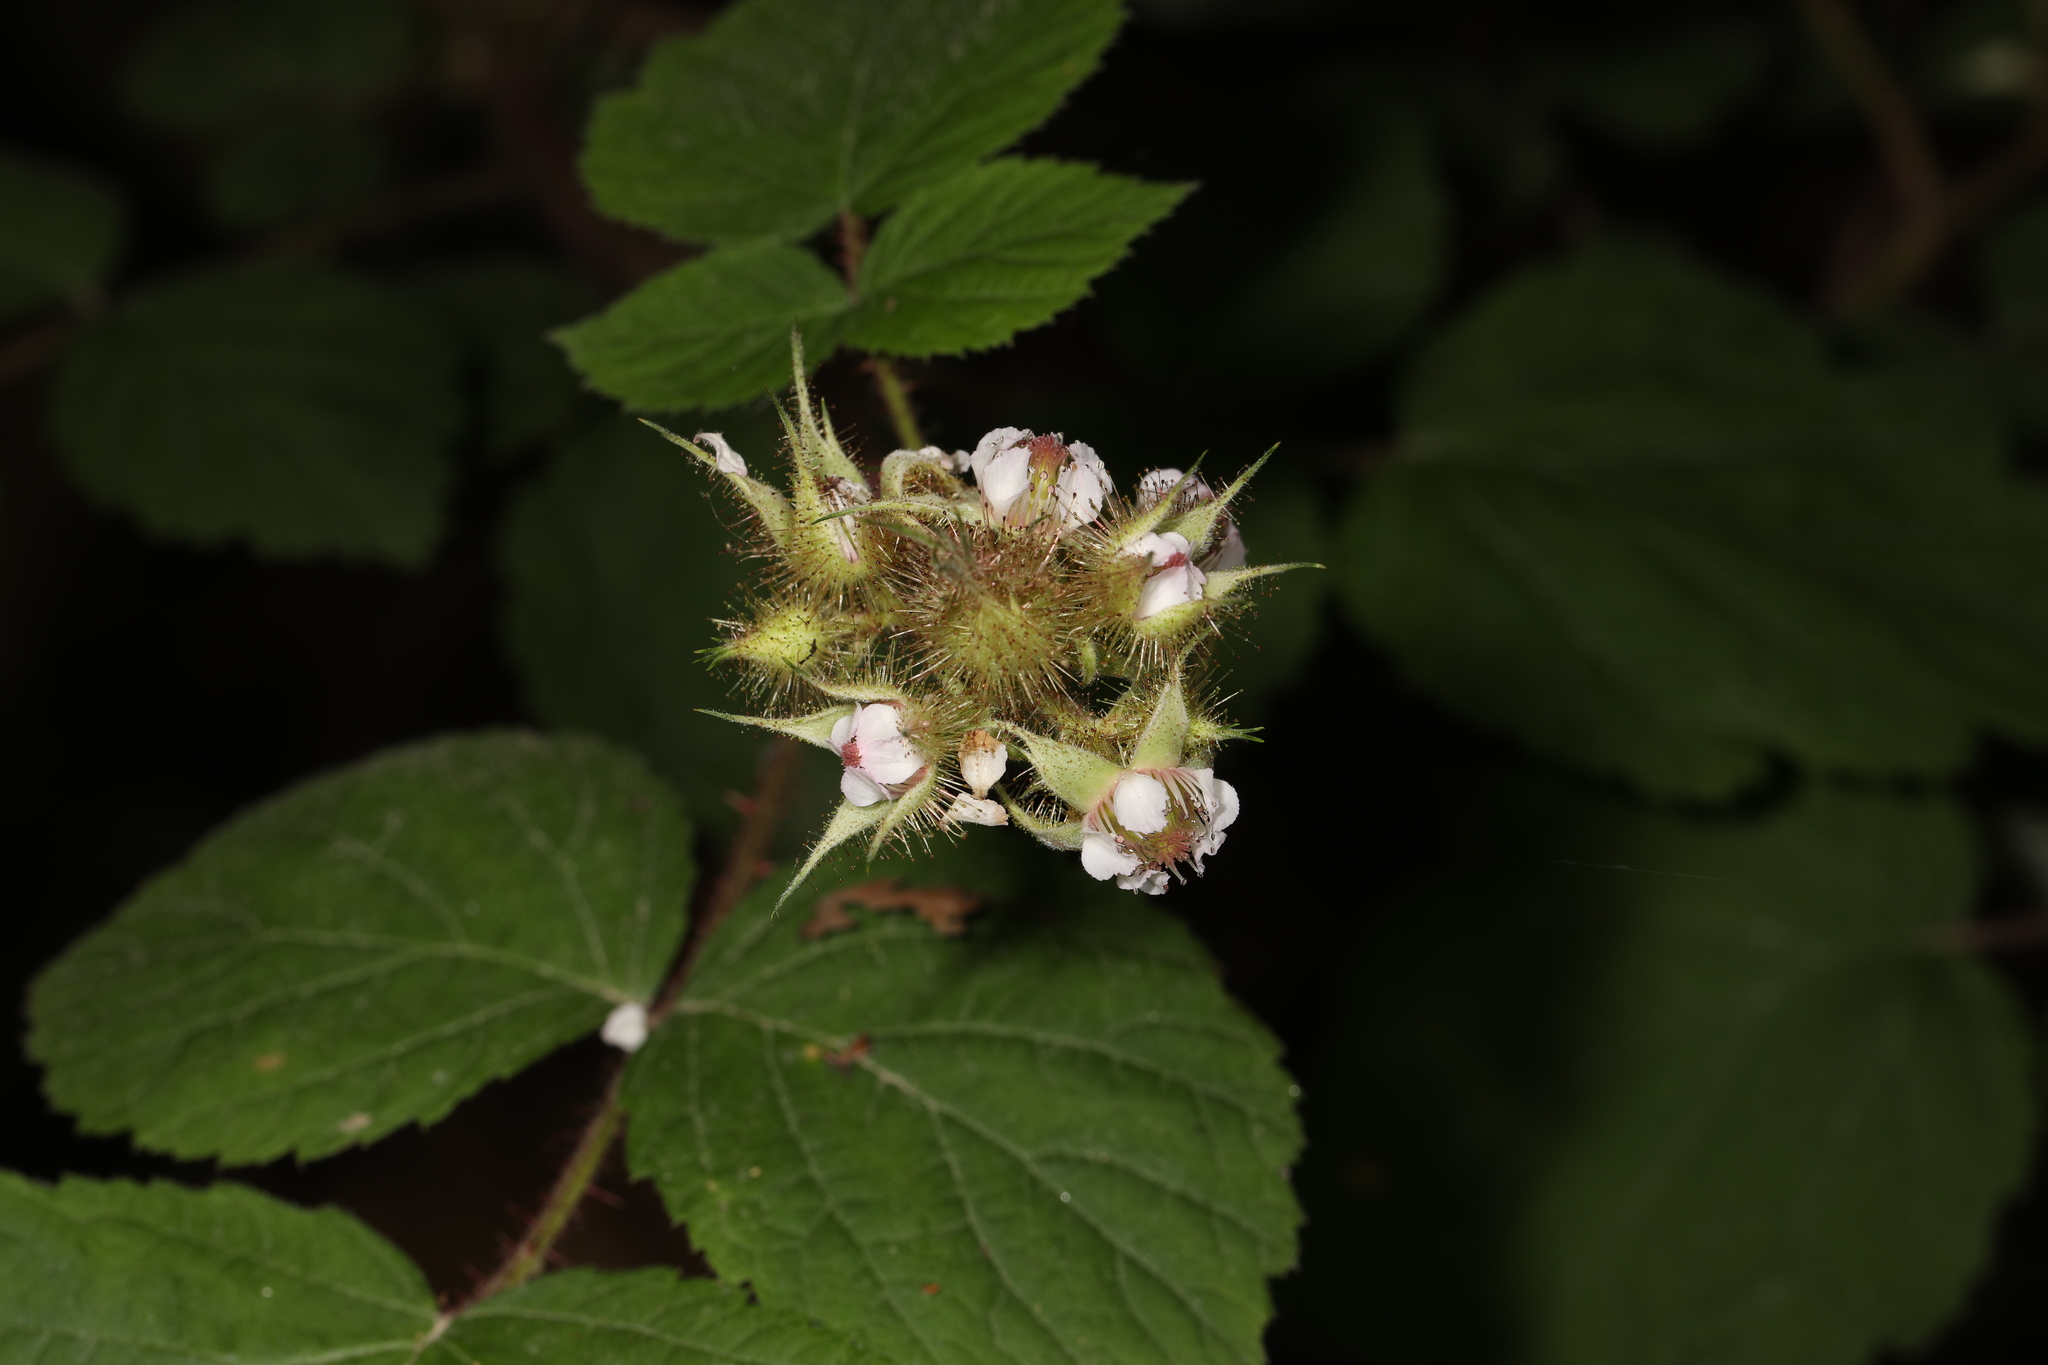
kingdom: Plantae
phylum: Tracheophyta
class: Magnoliopsida
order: Rosales
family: Rosaceae
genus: Rubus
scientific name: Rubus phoenicolasius
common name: Japanese wineberry
